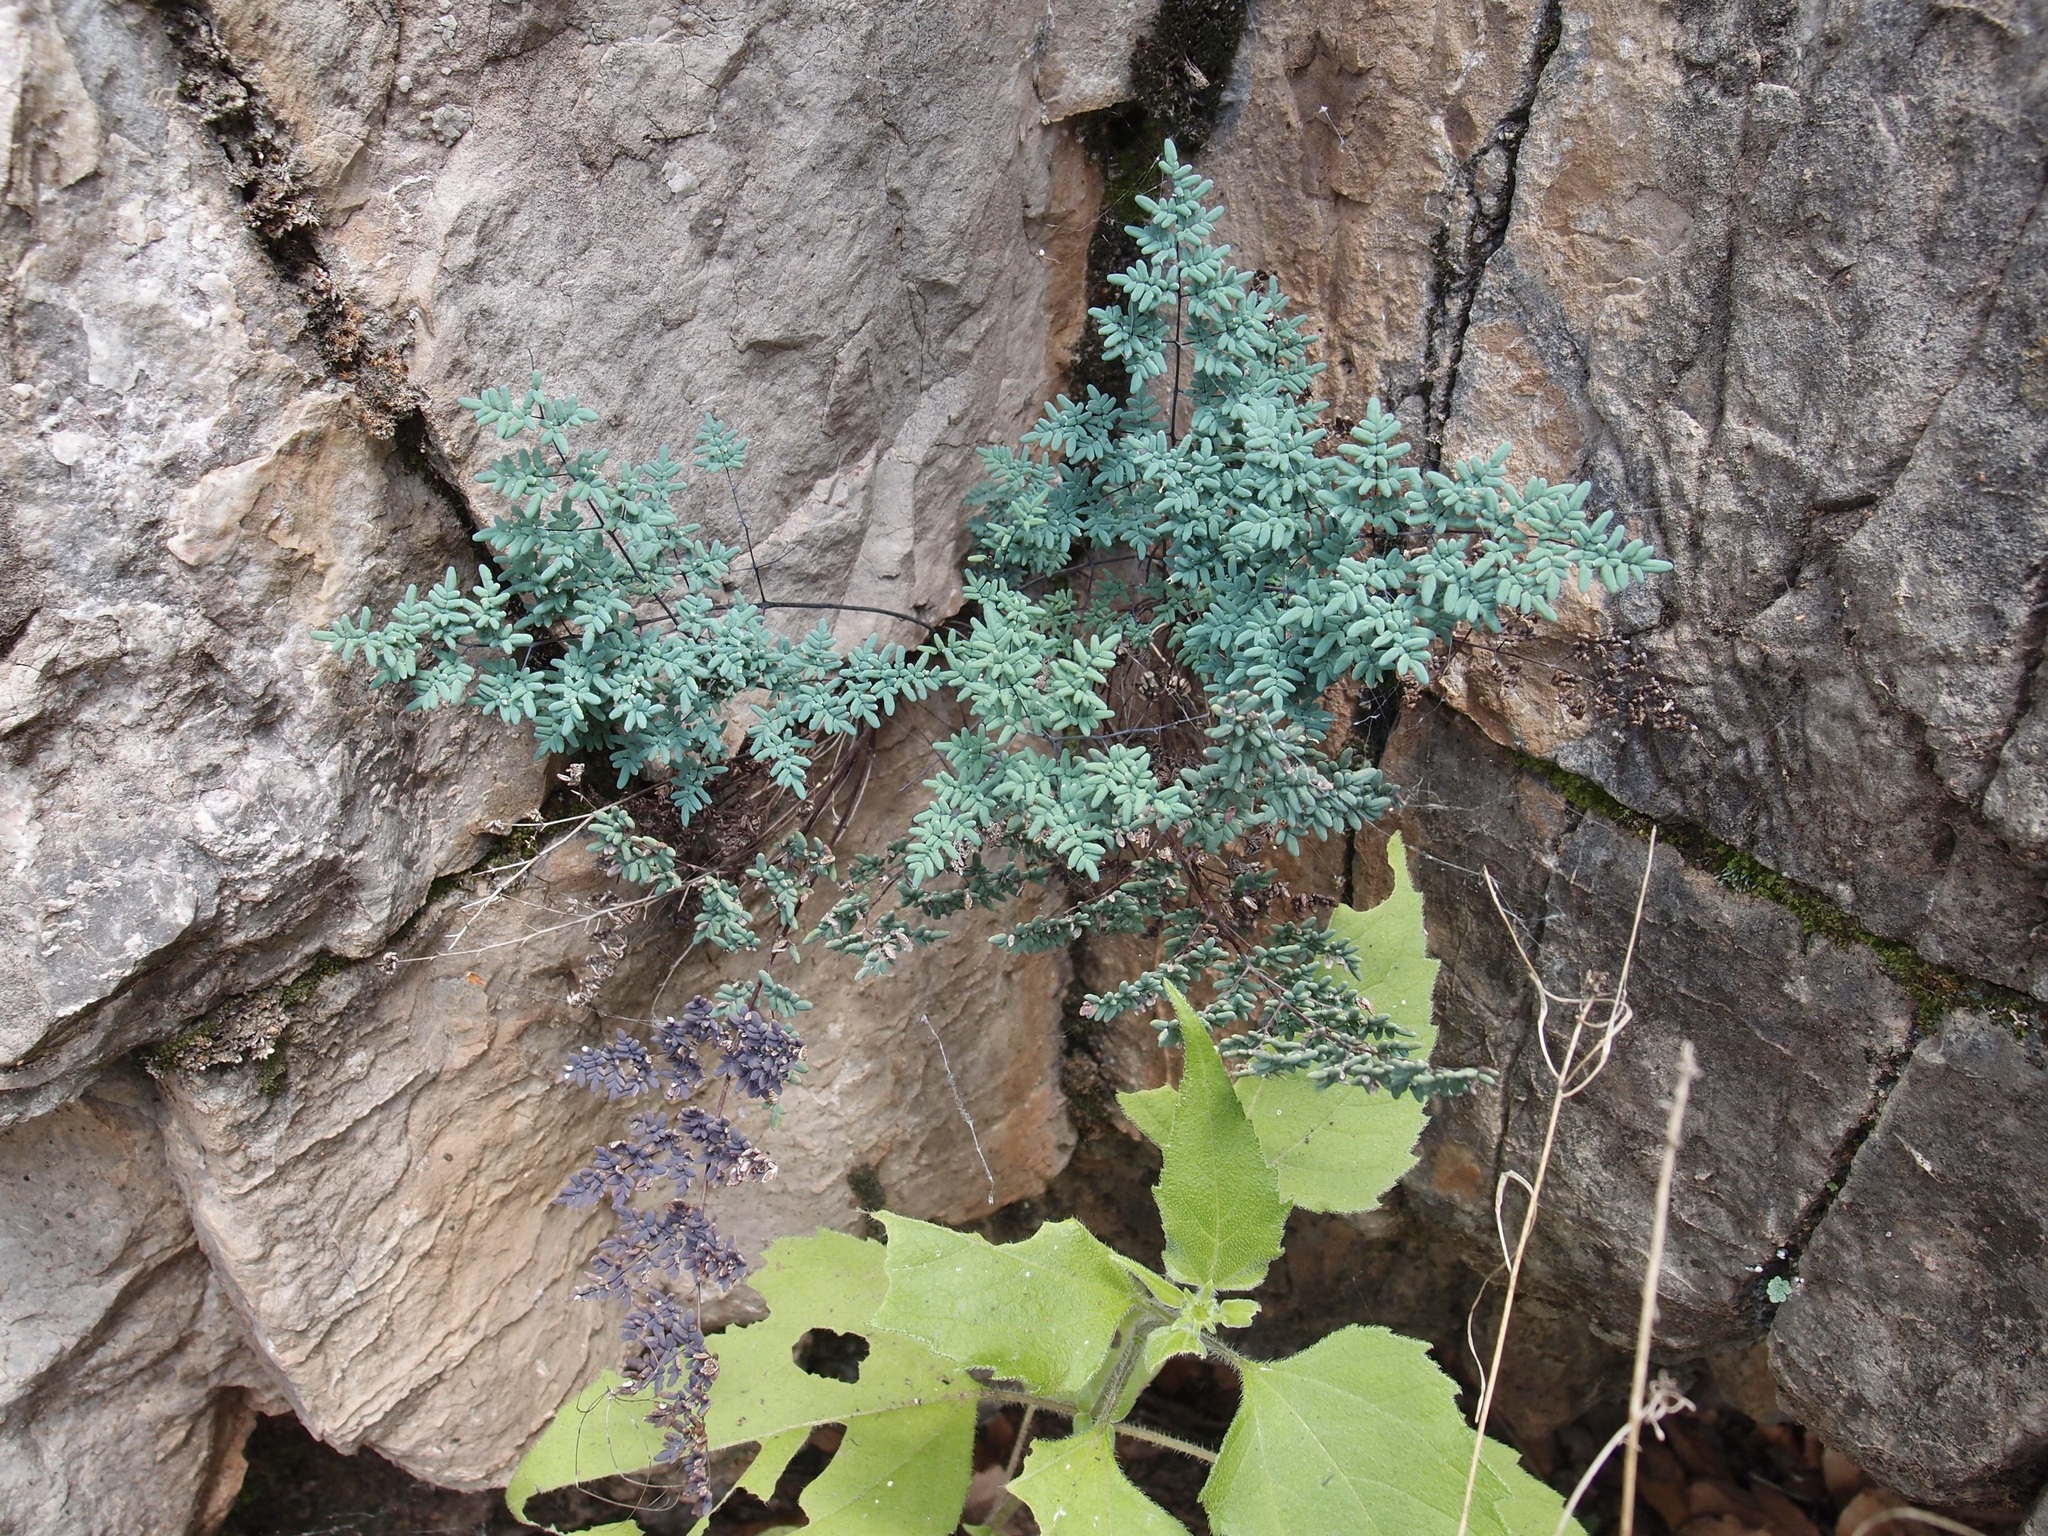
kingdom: Plantae
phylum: Tracheophyta
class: Polypodiopsida
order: Polypodiales
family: Pteridaceae
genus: Argyrochosma
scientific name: Argyrochosma limitanea
